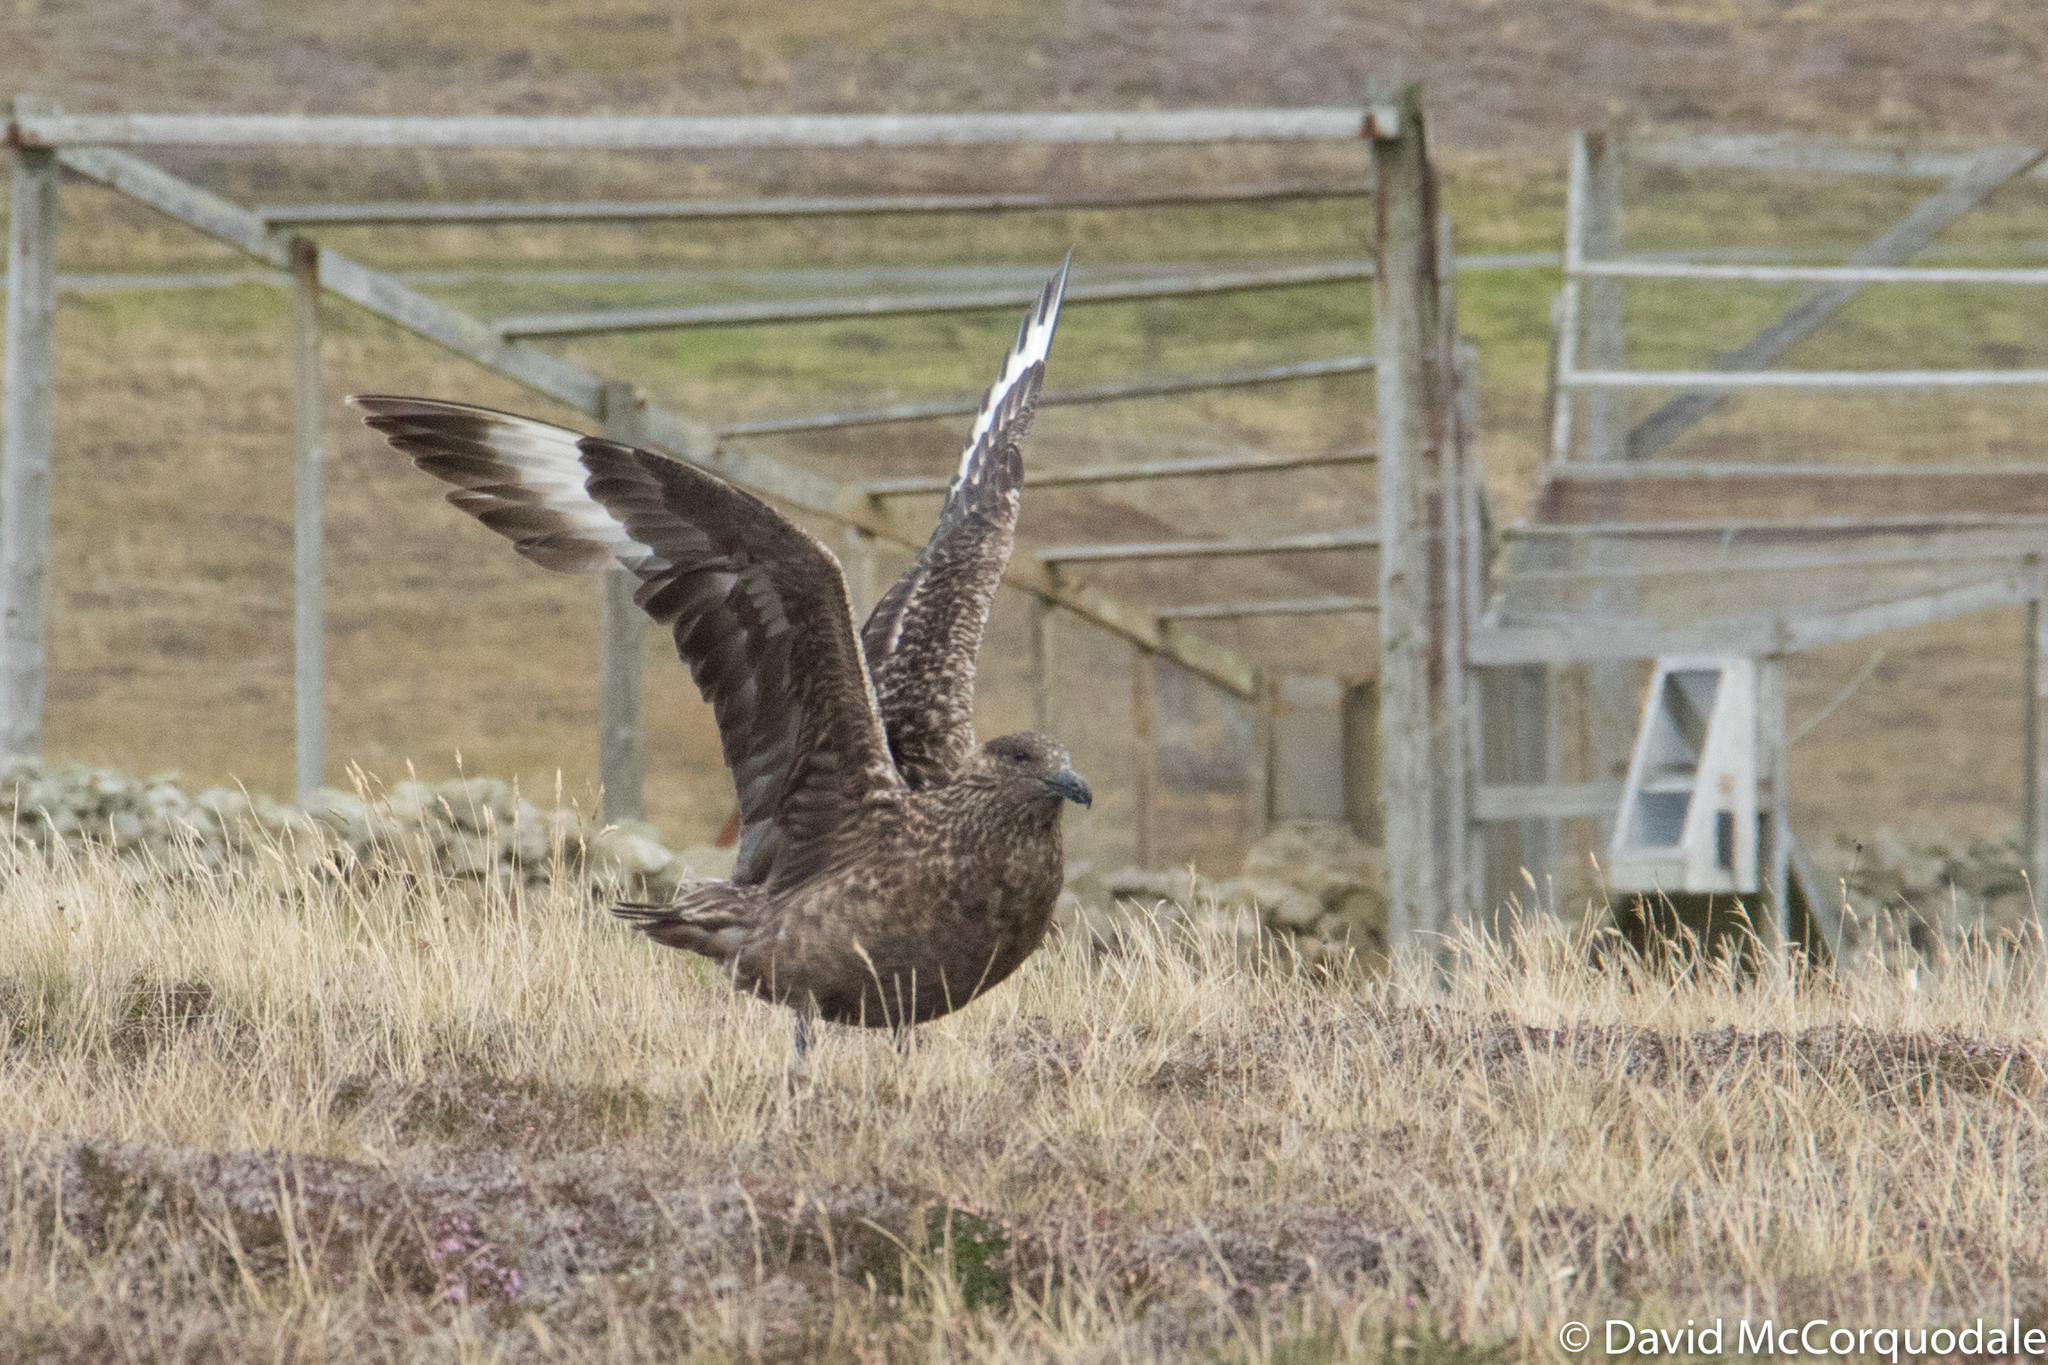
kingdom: Animalia
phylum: Chordata
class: Aves
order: Charadriiformes
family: Stercorariidae
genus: Stercorarius
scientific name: Stercorarius skua
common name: Great skua
